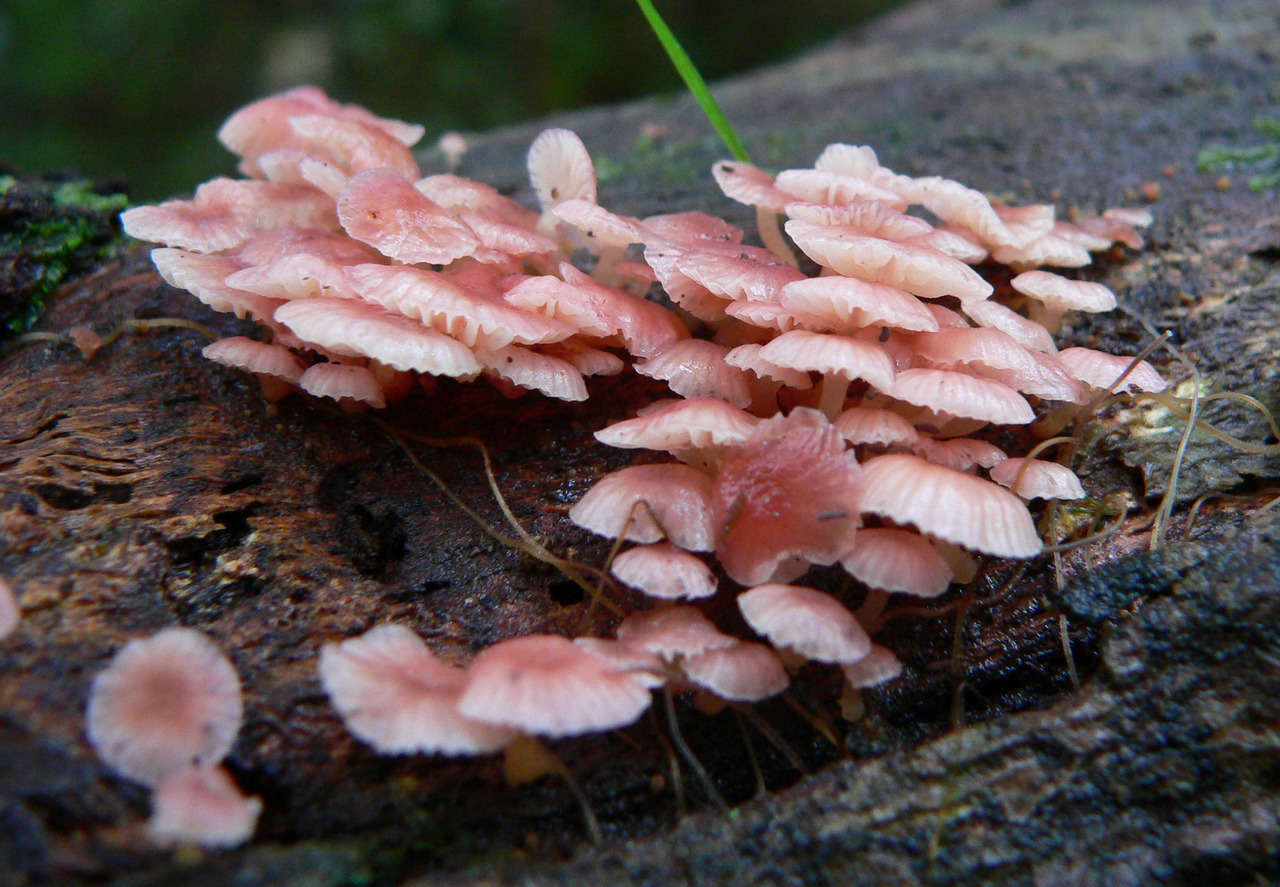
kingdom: Fungi
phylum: Basidiomycota
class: Agaricomycetes
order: Agaricales
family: Mycenaceae
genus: Mycena
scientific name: Mycena roseoflava
